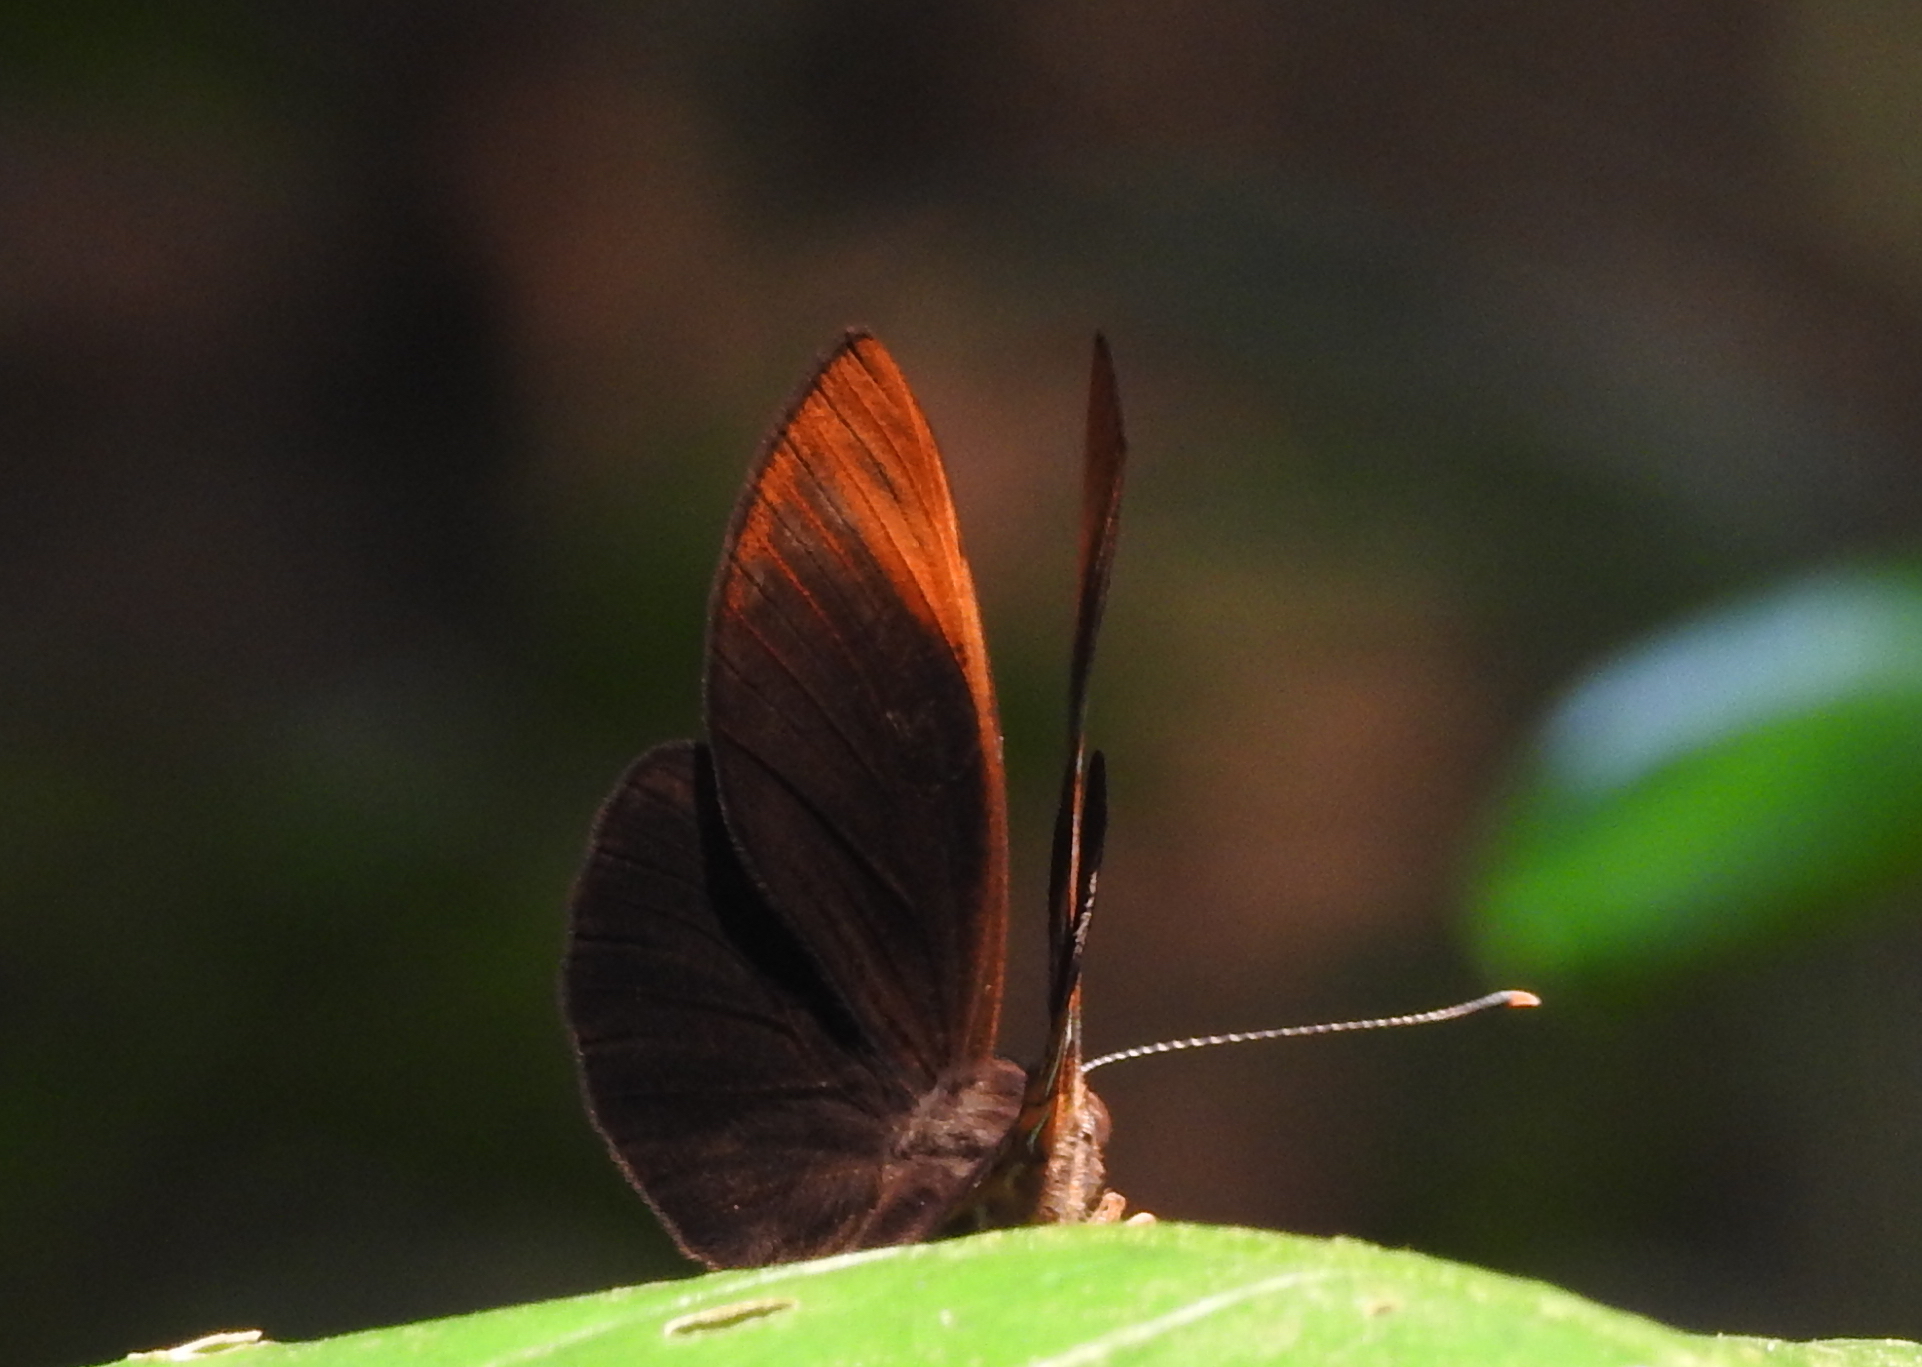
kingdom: Animalia
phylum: Arthropoda
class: Insecta
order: Lepidoptera
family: Erebidae
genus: Dysschema
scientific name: Dysschema
